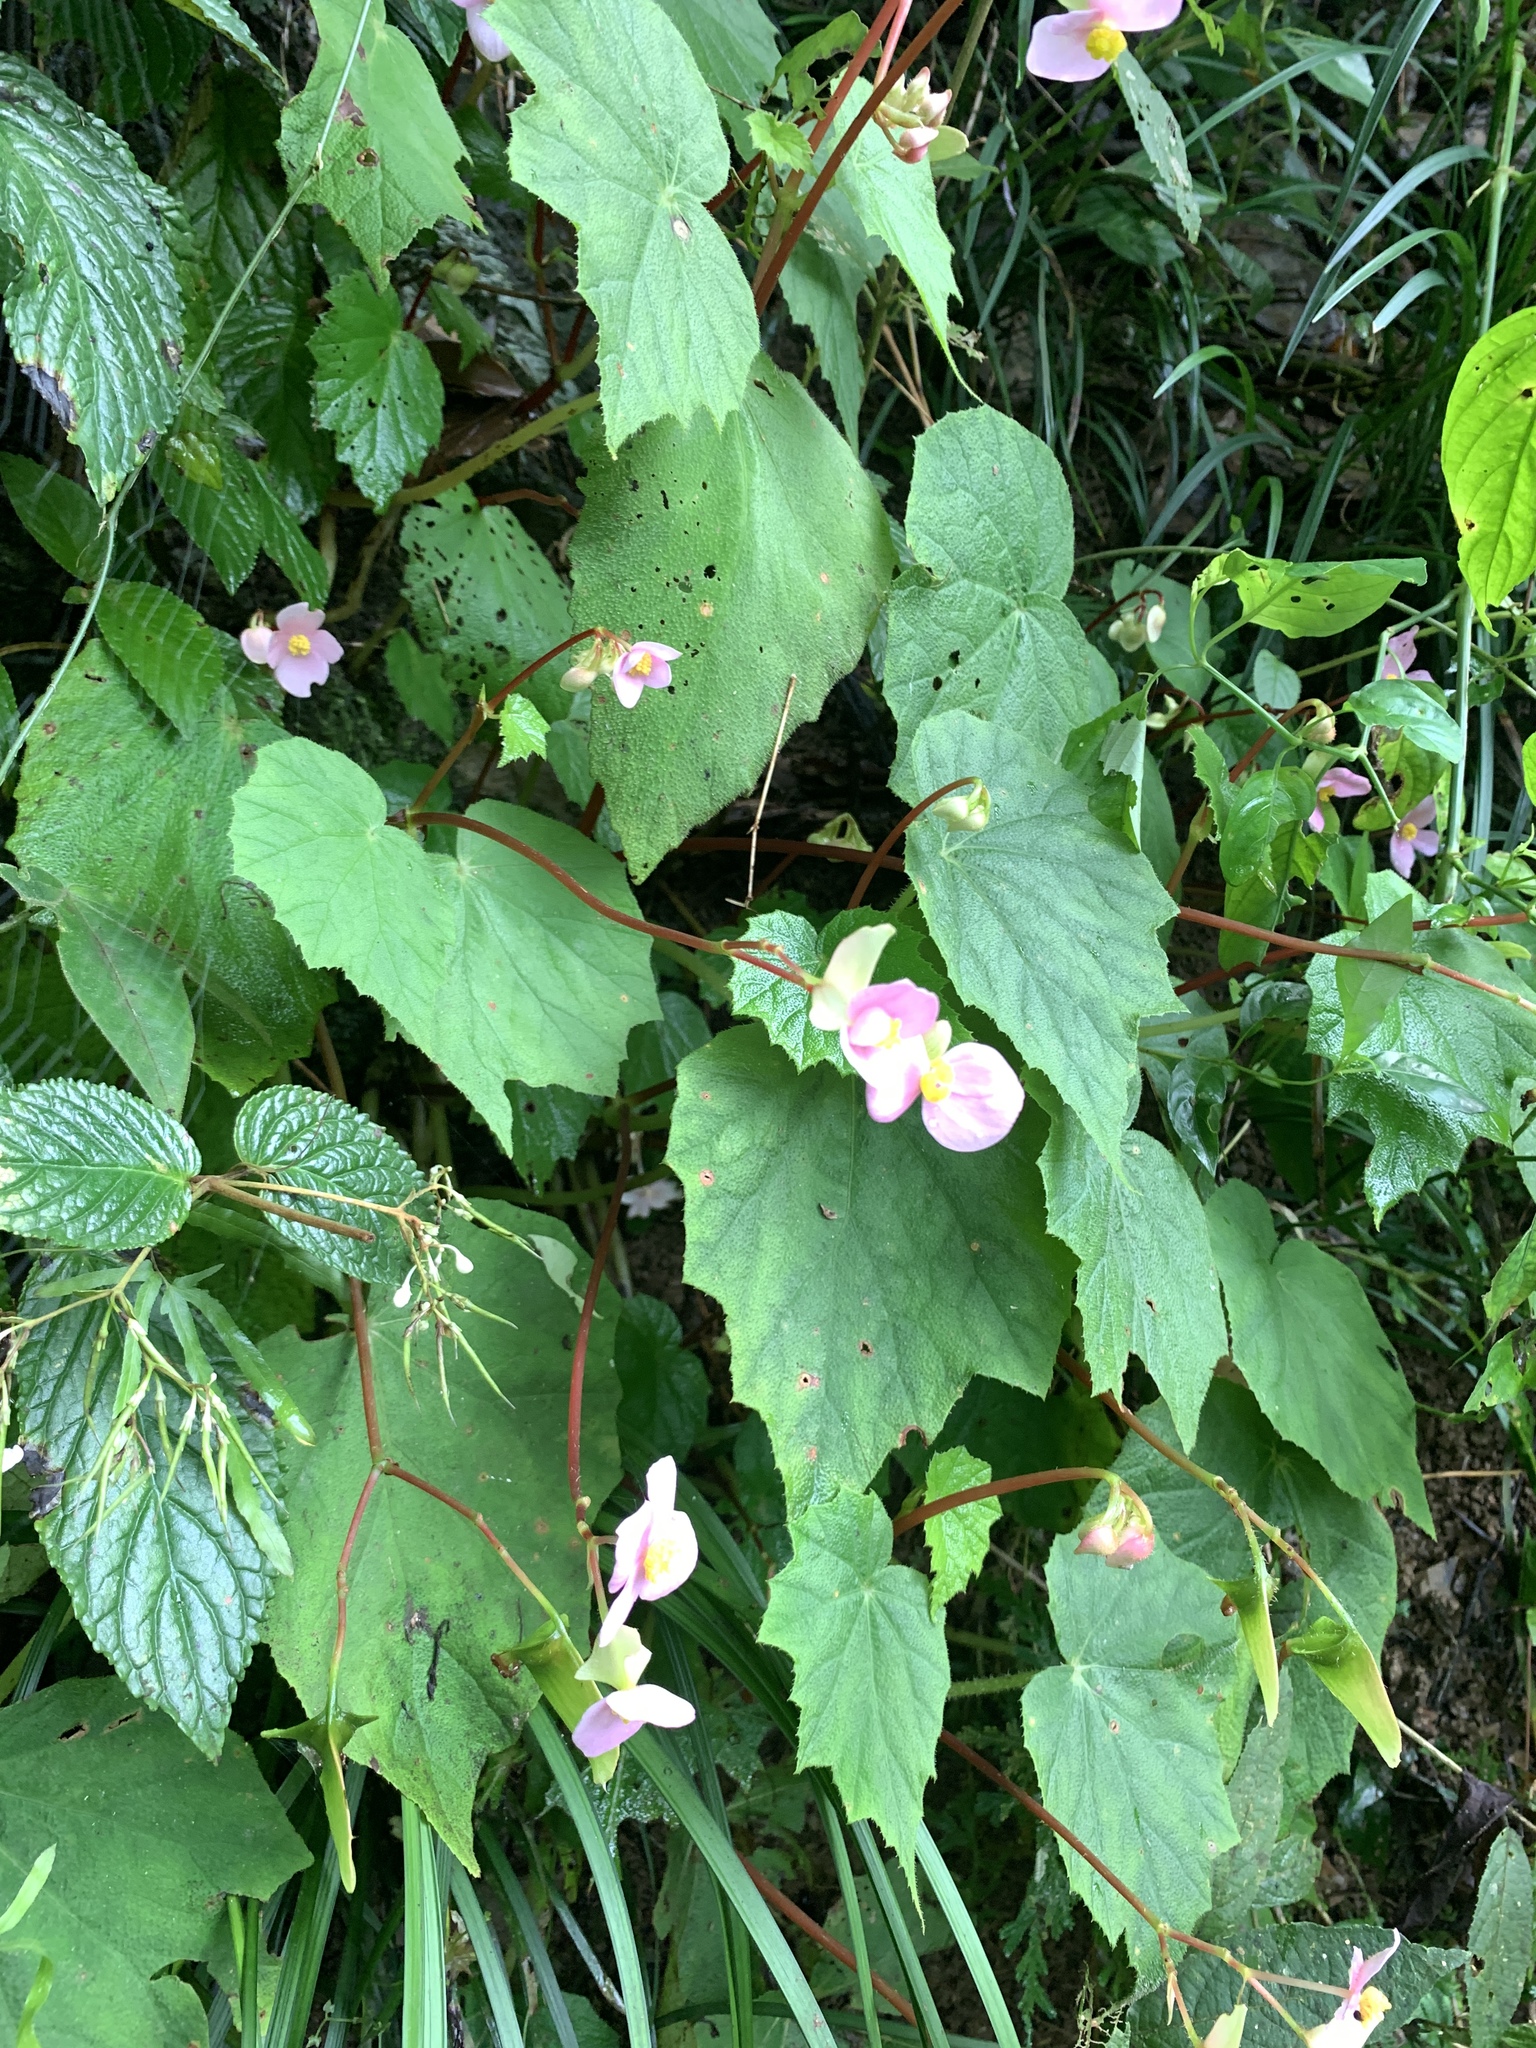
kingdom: Plantae
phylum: Tracheophyta
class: Magnoliopsida
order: Cucurbitales
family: Begoniaceae
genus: Begonia
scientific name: Begonia palmata
